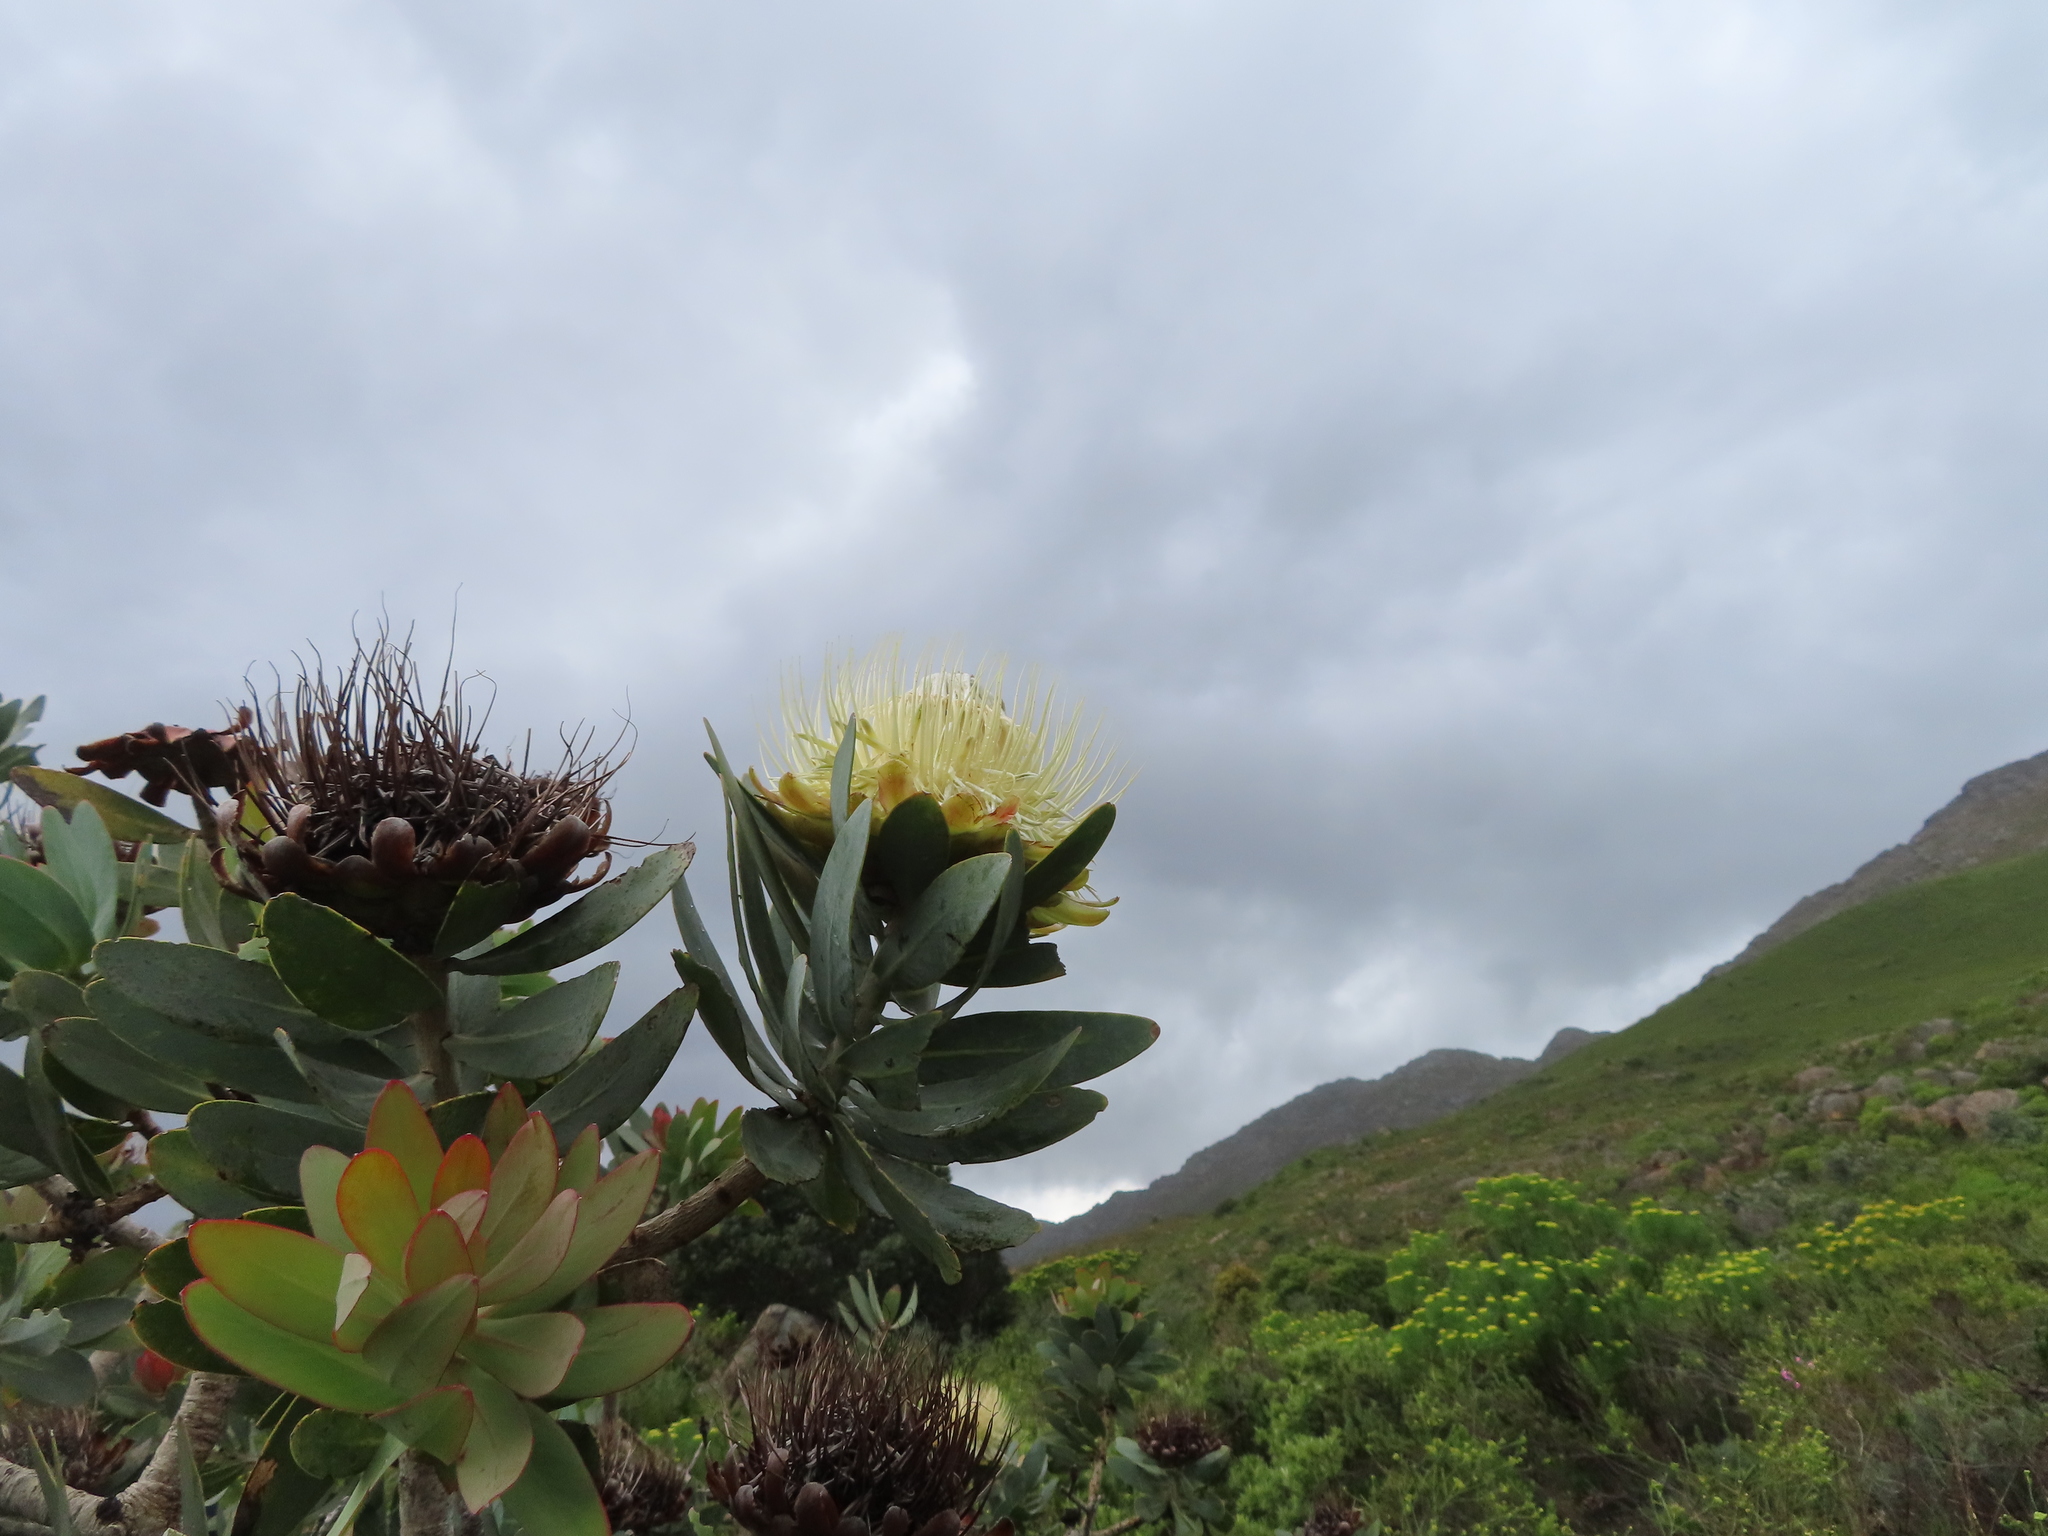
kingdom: Plantae
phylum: Tracheophyta
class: Magnoliopsida
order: Proteales
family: Proteaceae
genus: Protea
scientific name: Protea nitida
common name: Tree protea
